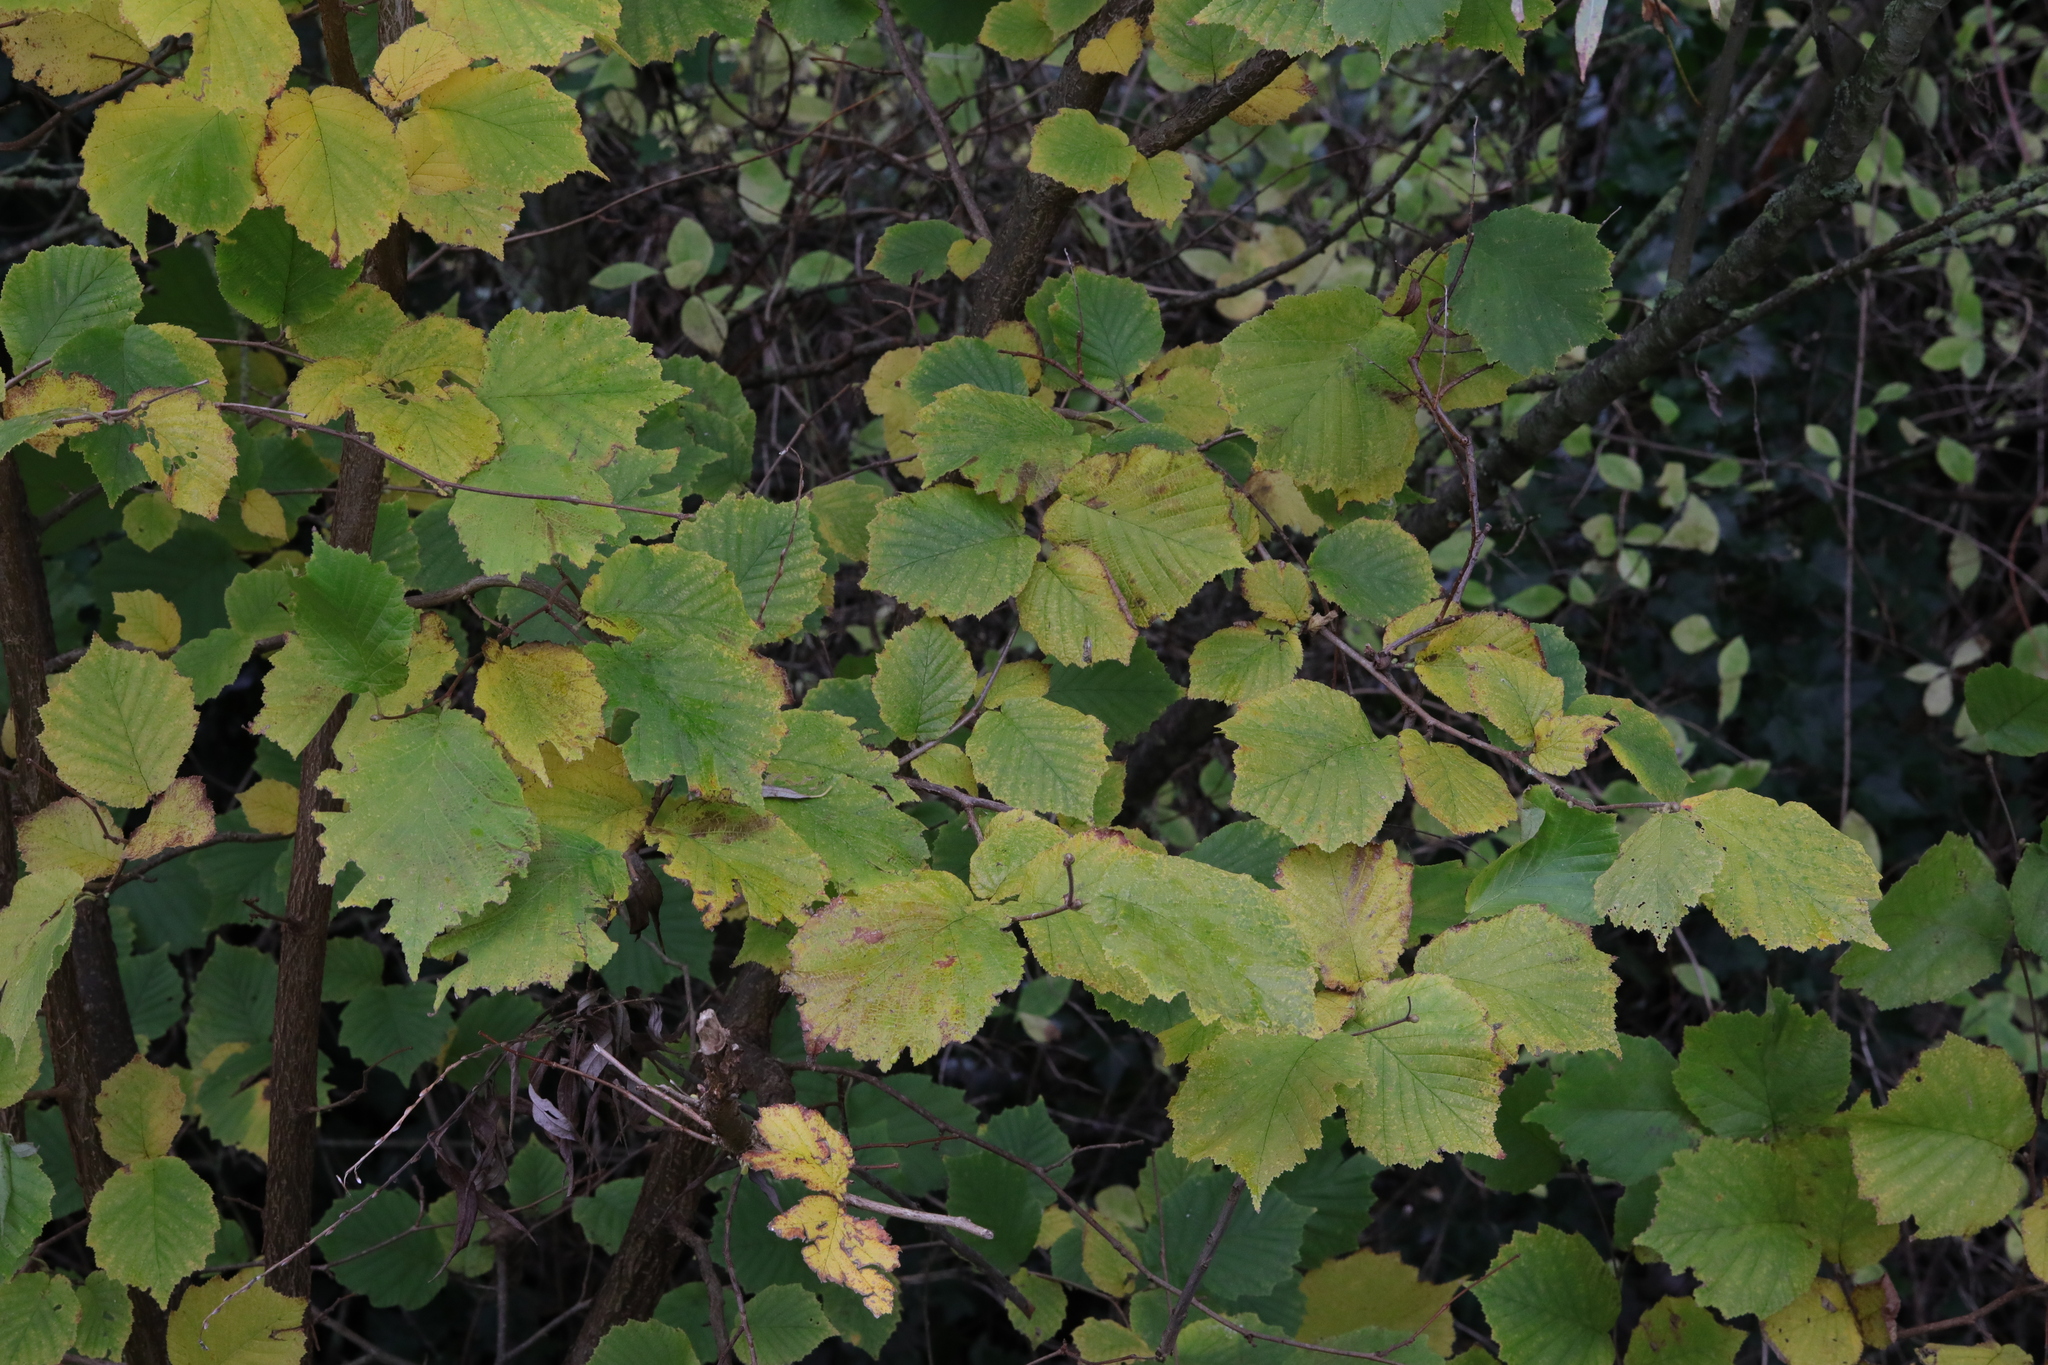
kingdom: Plantae
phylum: Tracheophyta
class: Magnoliopsida
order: Fagales
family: Betulaceae
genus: Corylus
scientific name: Corylus avellana
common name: European hazel
